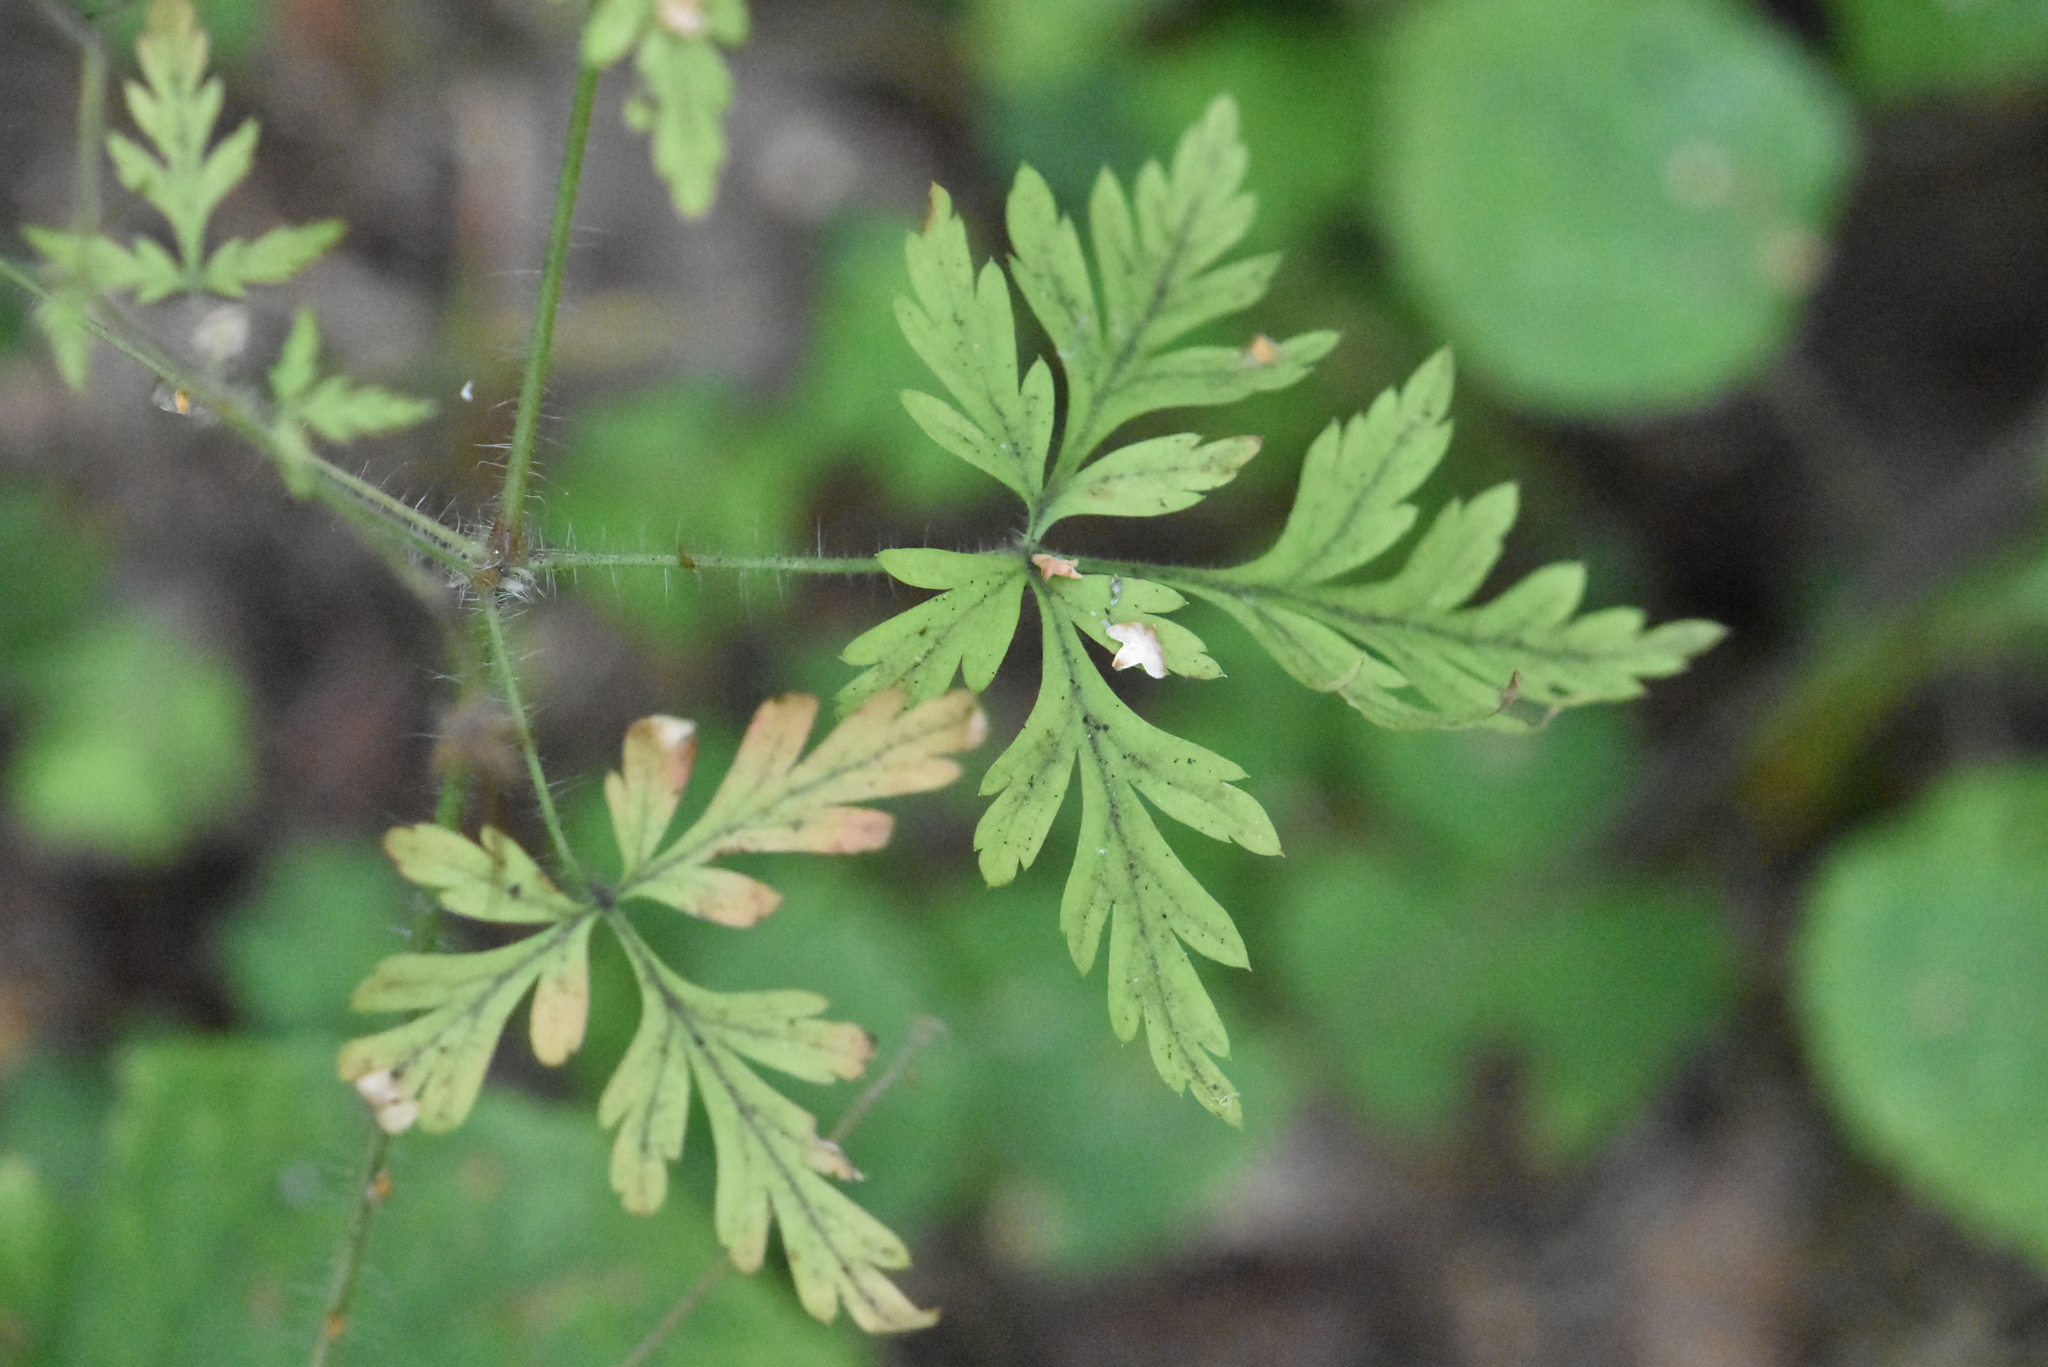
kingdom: Plantae
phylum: Tracheophyta
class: Magnoliopsida
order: Geraniales
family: Geraniaceae
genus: Geranium
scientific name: Geranium robertianum
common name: Herb-robert
